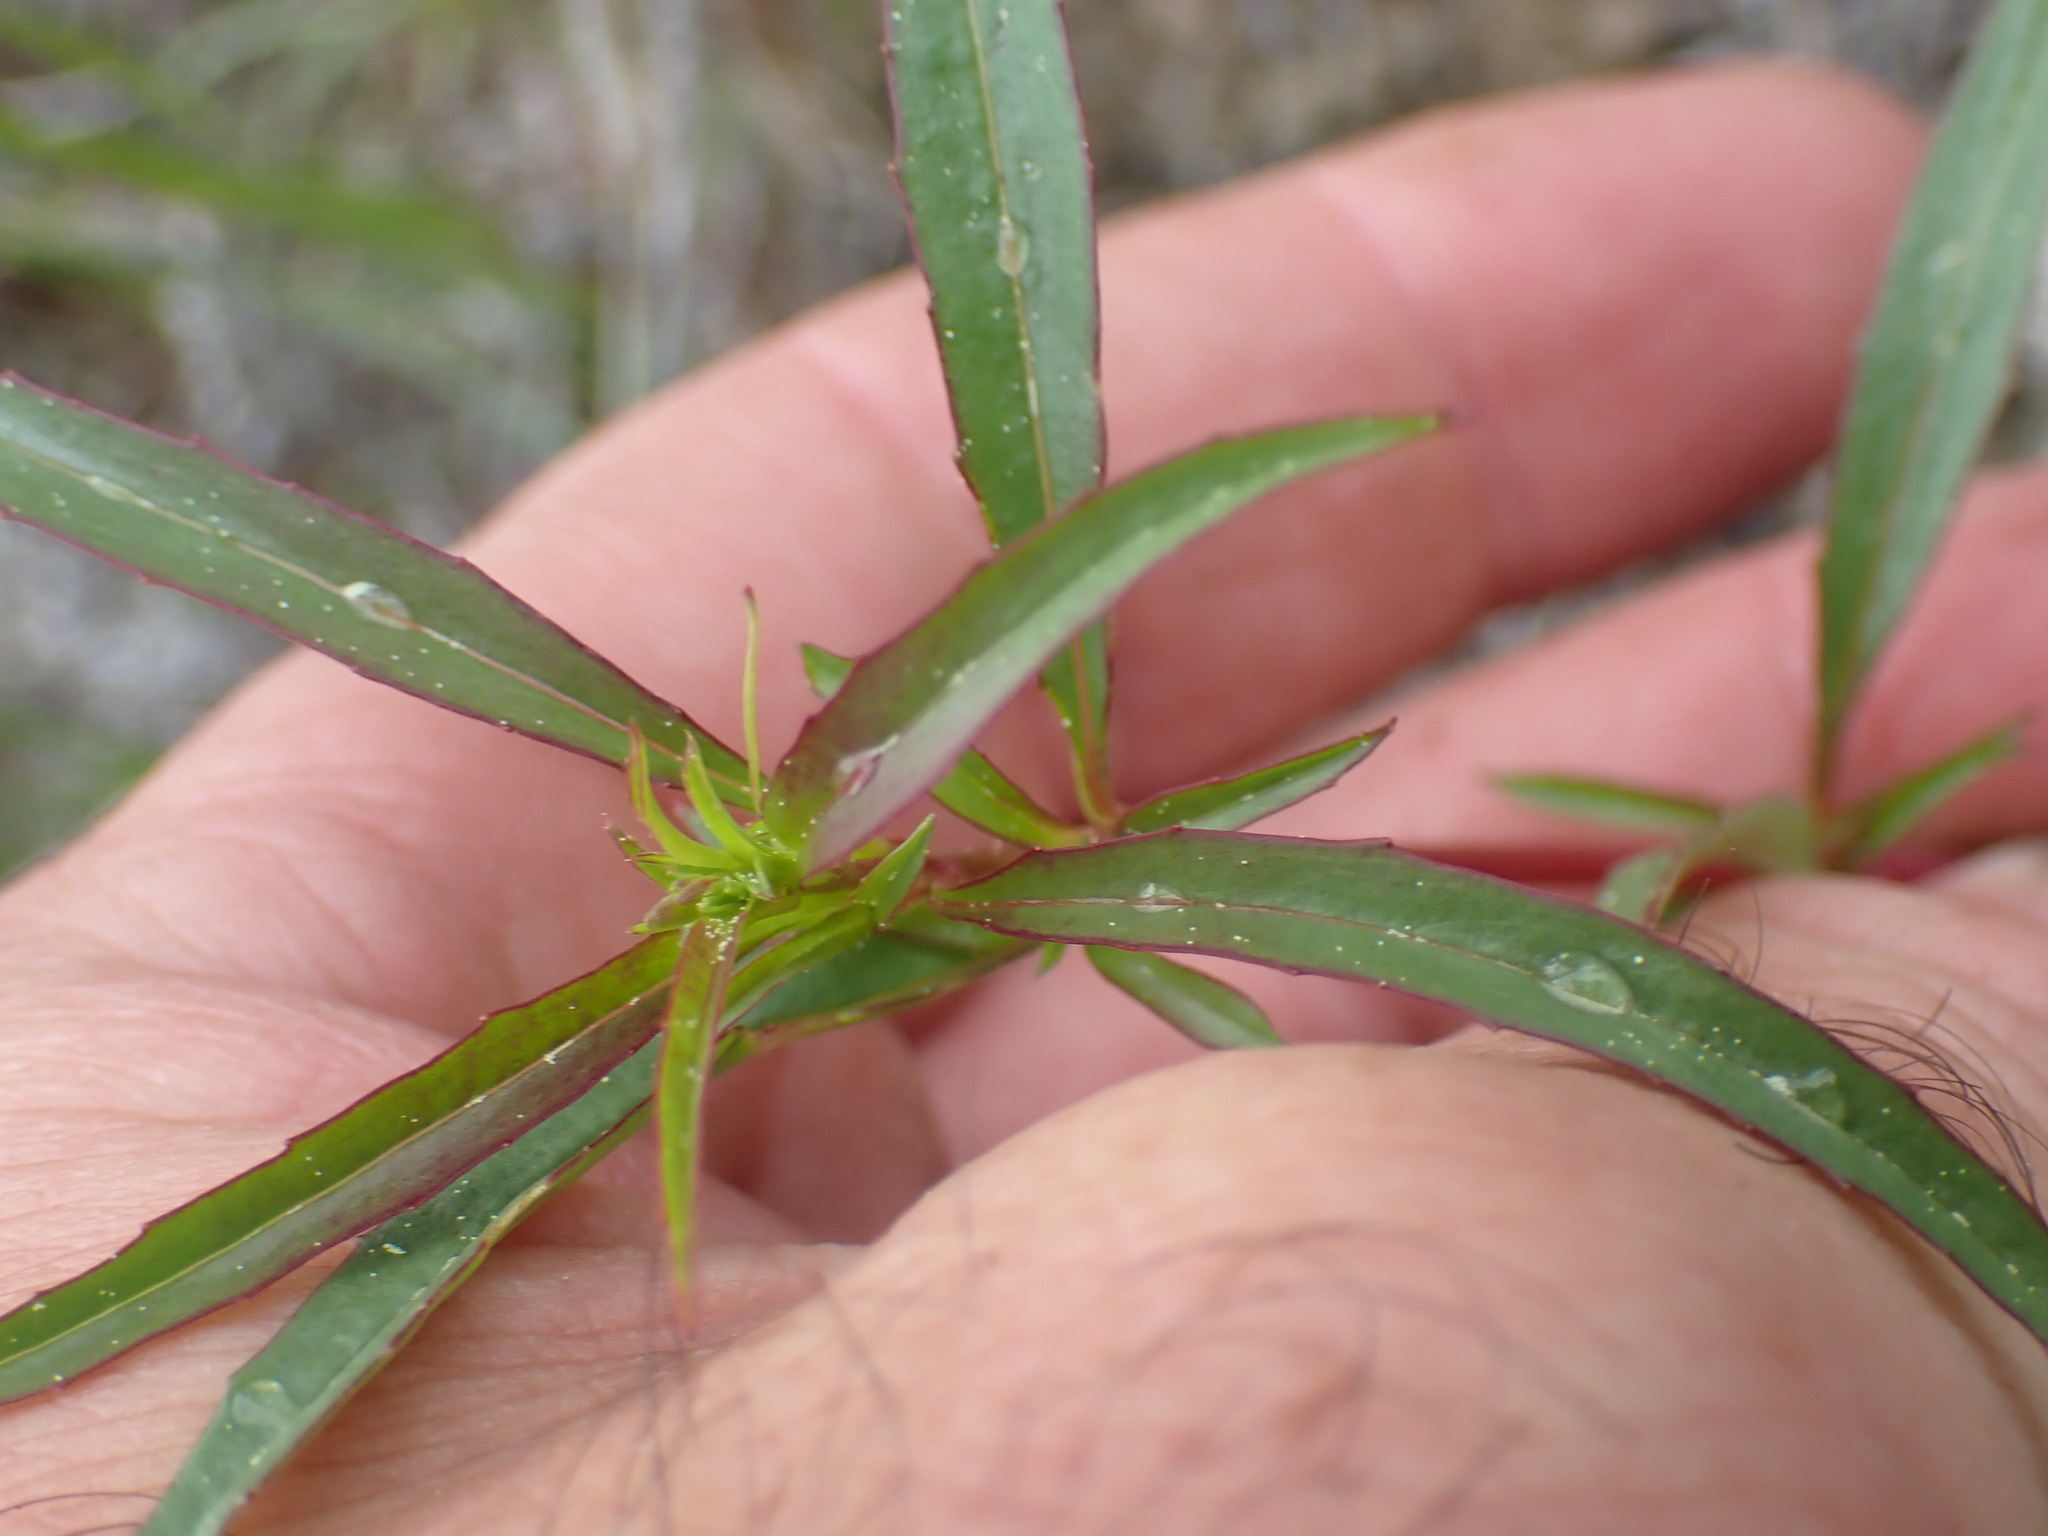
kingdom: Plantae
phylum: Tracheophyta
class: Magnoliopsida
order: Lamiales
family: Plantaginaceae
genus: Penstemon
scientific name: Penstemon fruticosus
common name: Bush penstemon
